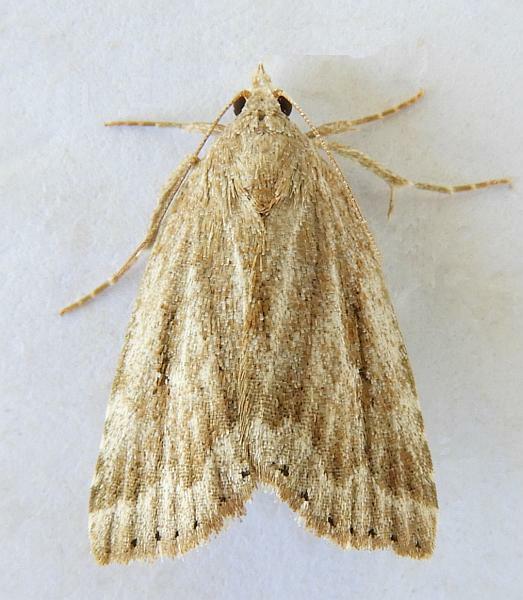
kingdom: Animalia
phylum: Arthropoda
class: Insecta
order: Lepidoptera
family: Erebidae
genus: Cutina
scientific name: Cutina albopunctella
